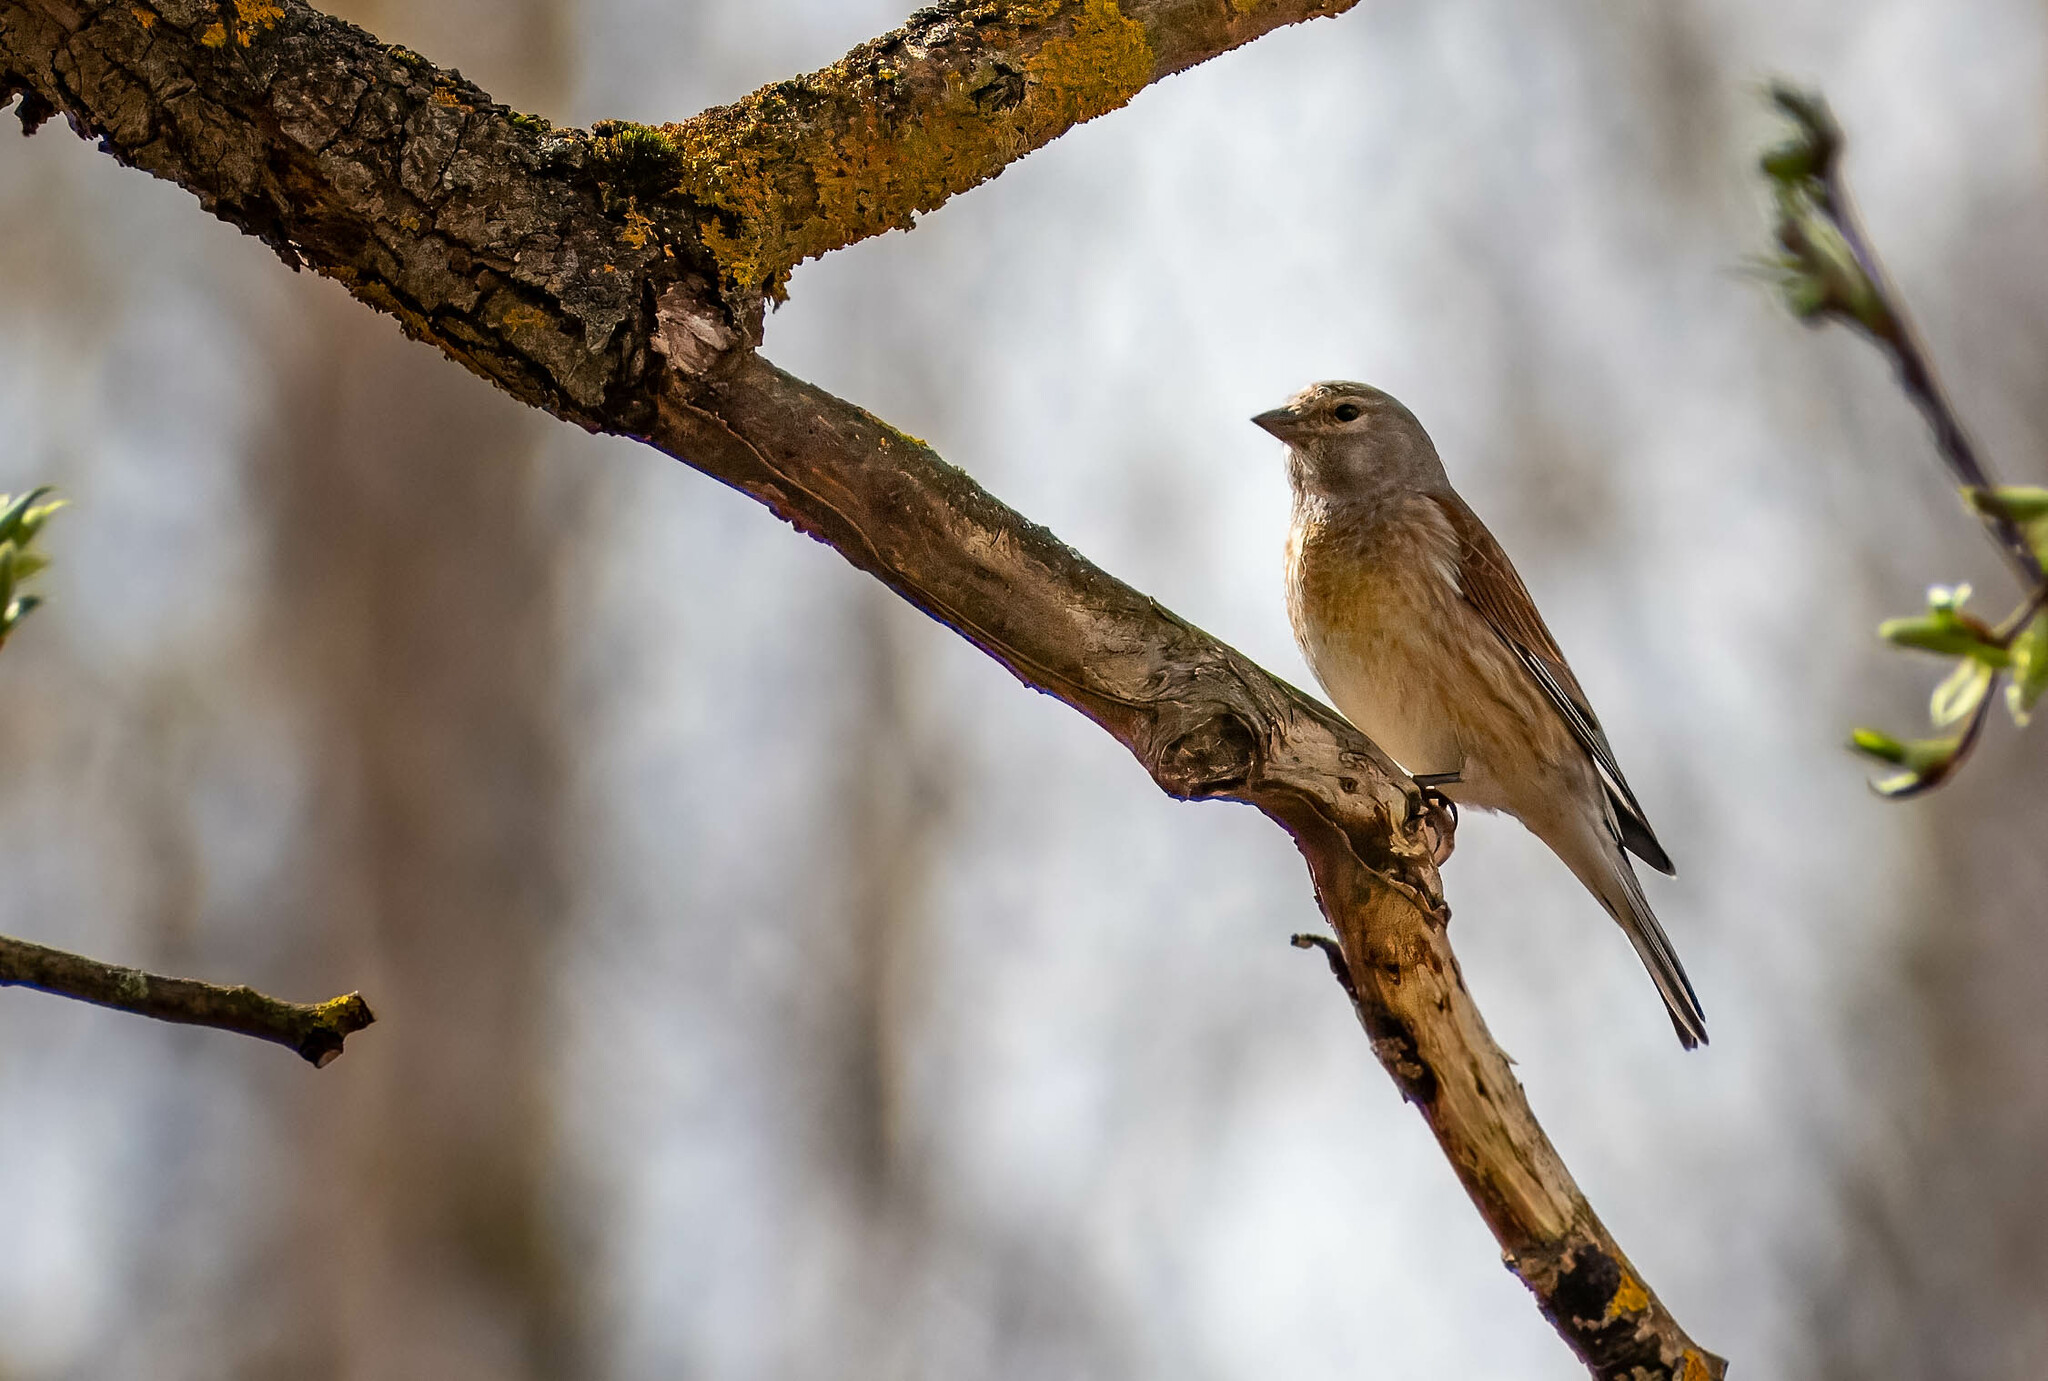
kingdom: Animalia
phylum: Chordata
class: Aves
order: Passeriformes
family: Fringillidae
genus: Linaria
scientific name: Linaria cannabina
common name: Common linnet
